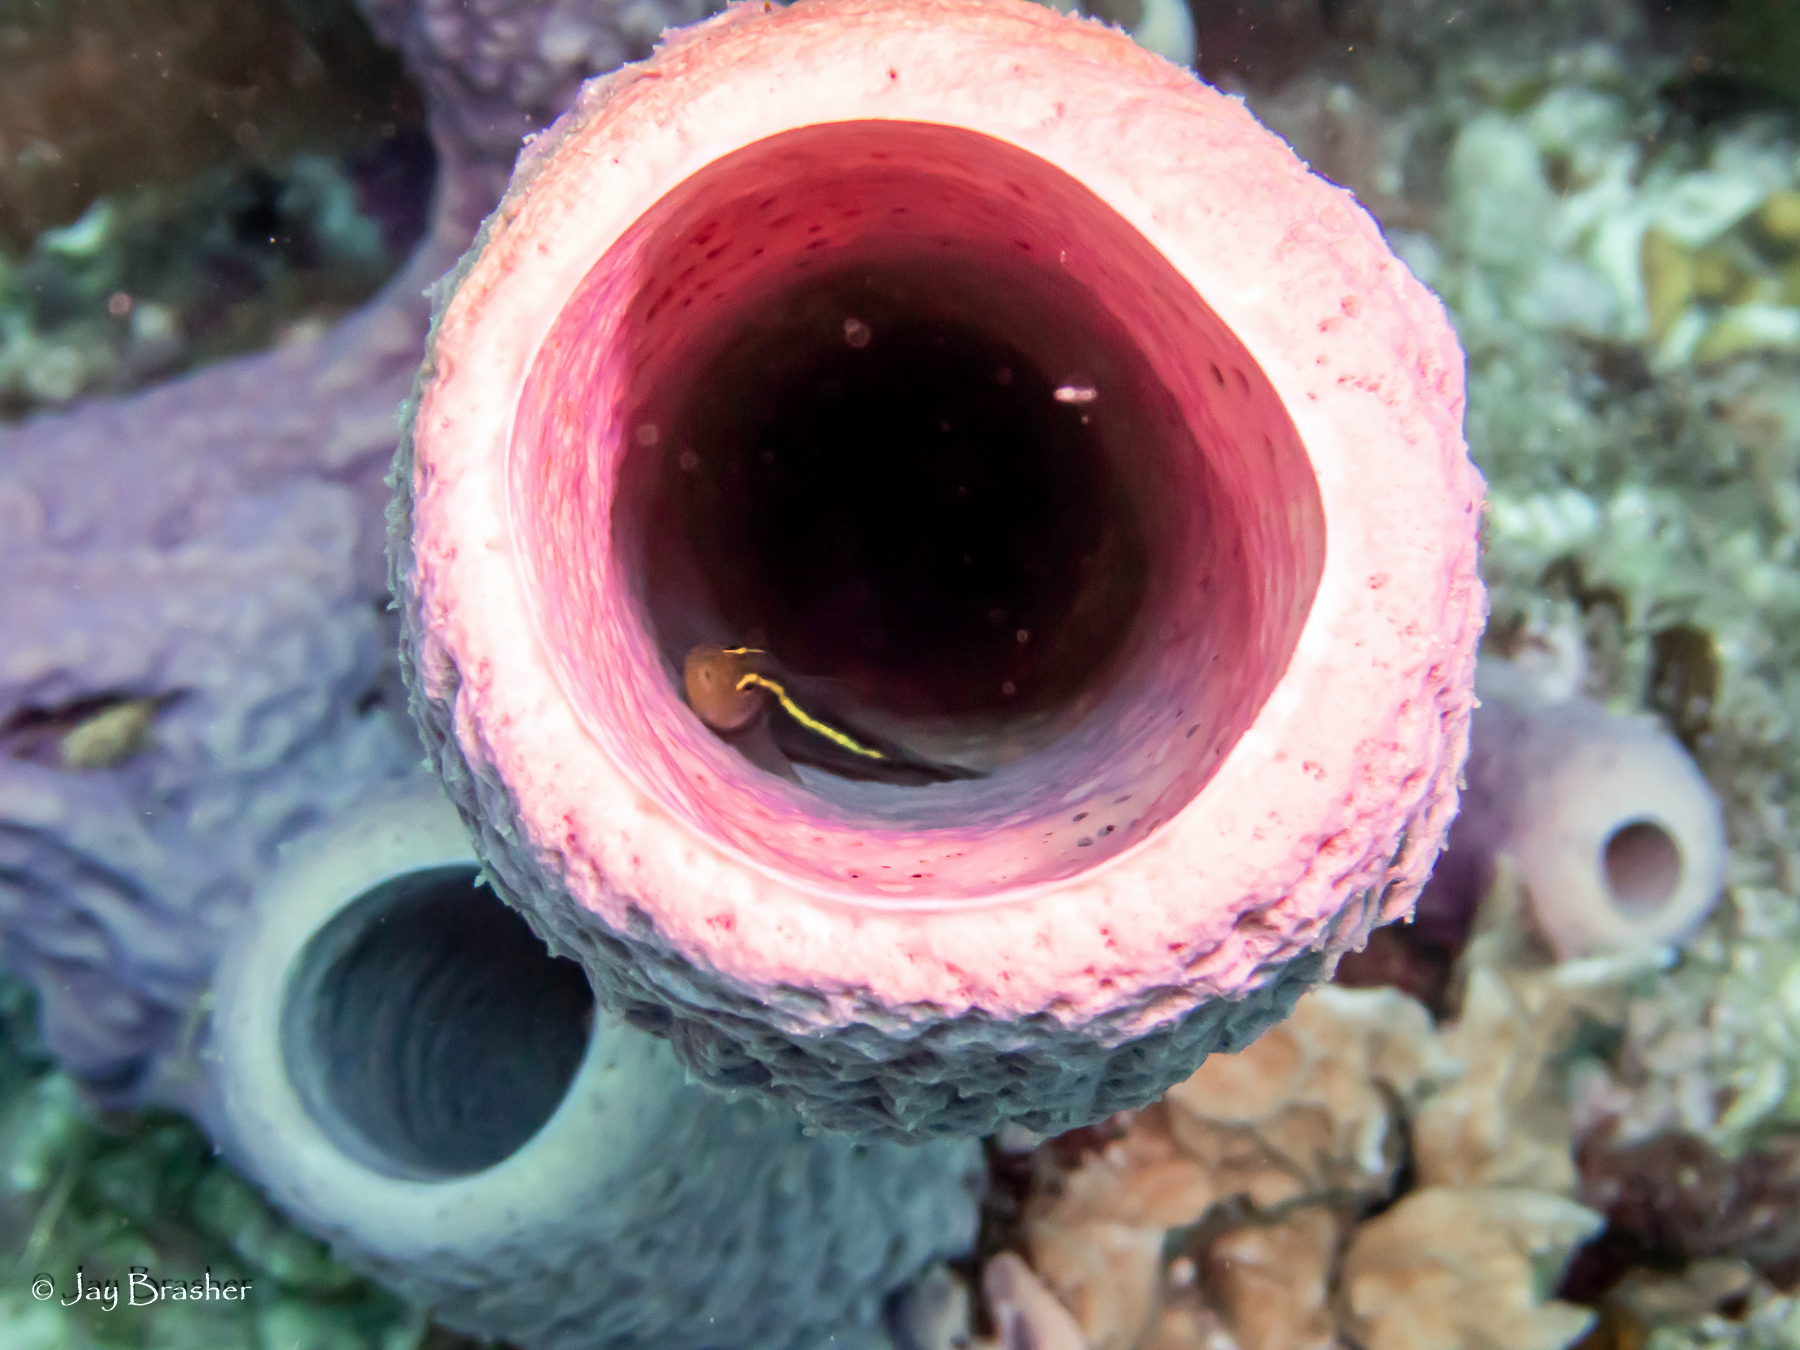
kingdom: Animalia
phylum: Chordata
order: Perciformes
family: Gobiidae
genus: Elacatinus
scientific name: Elacatinus horsti
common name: Yellowline goby
